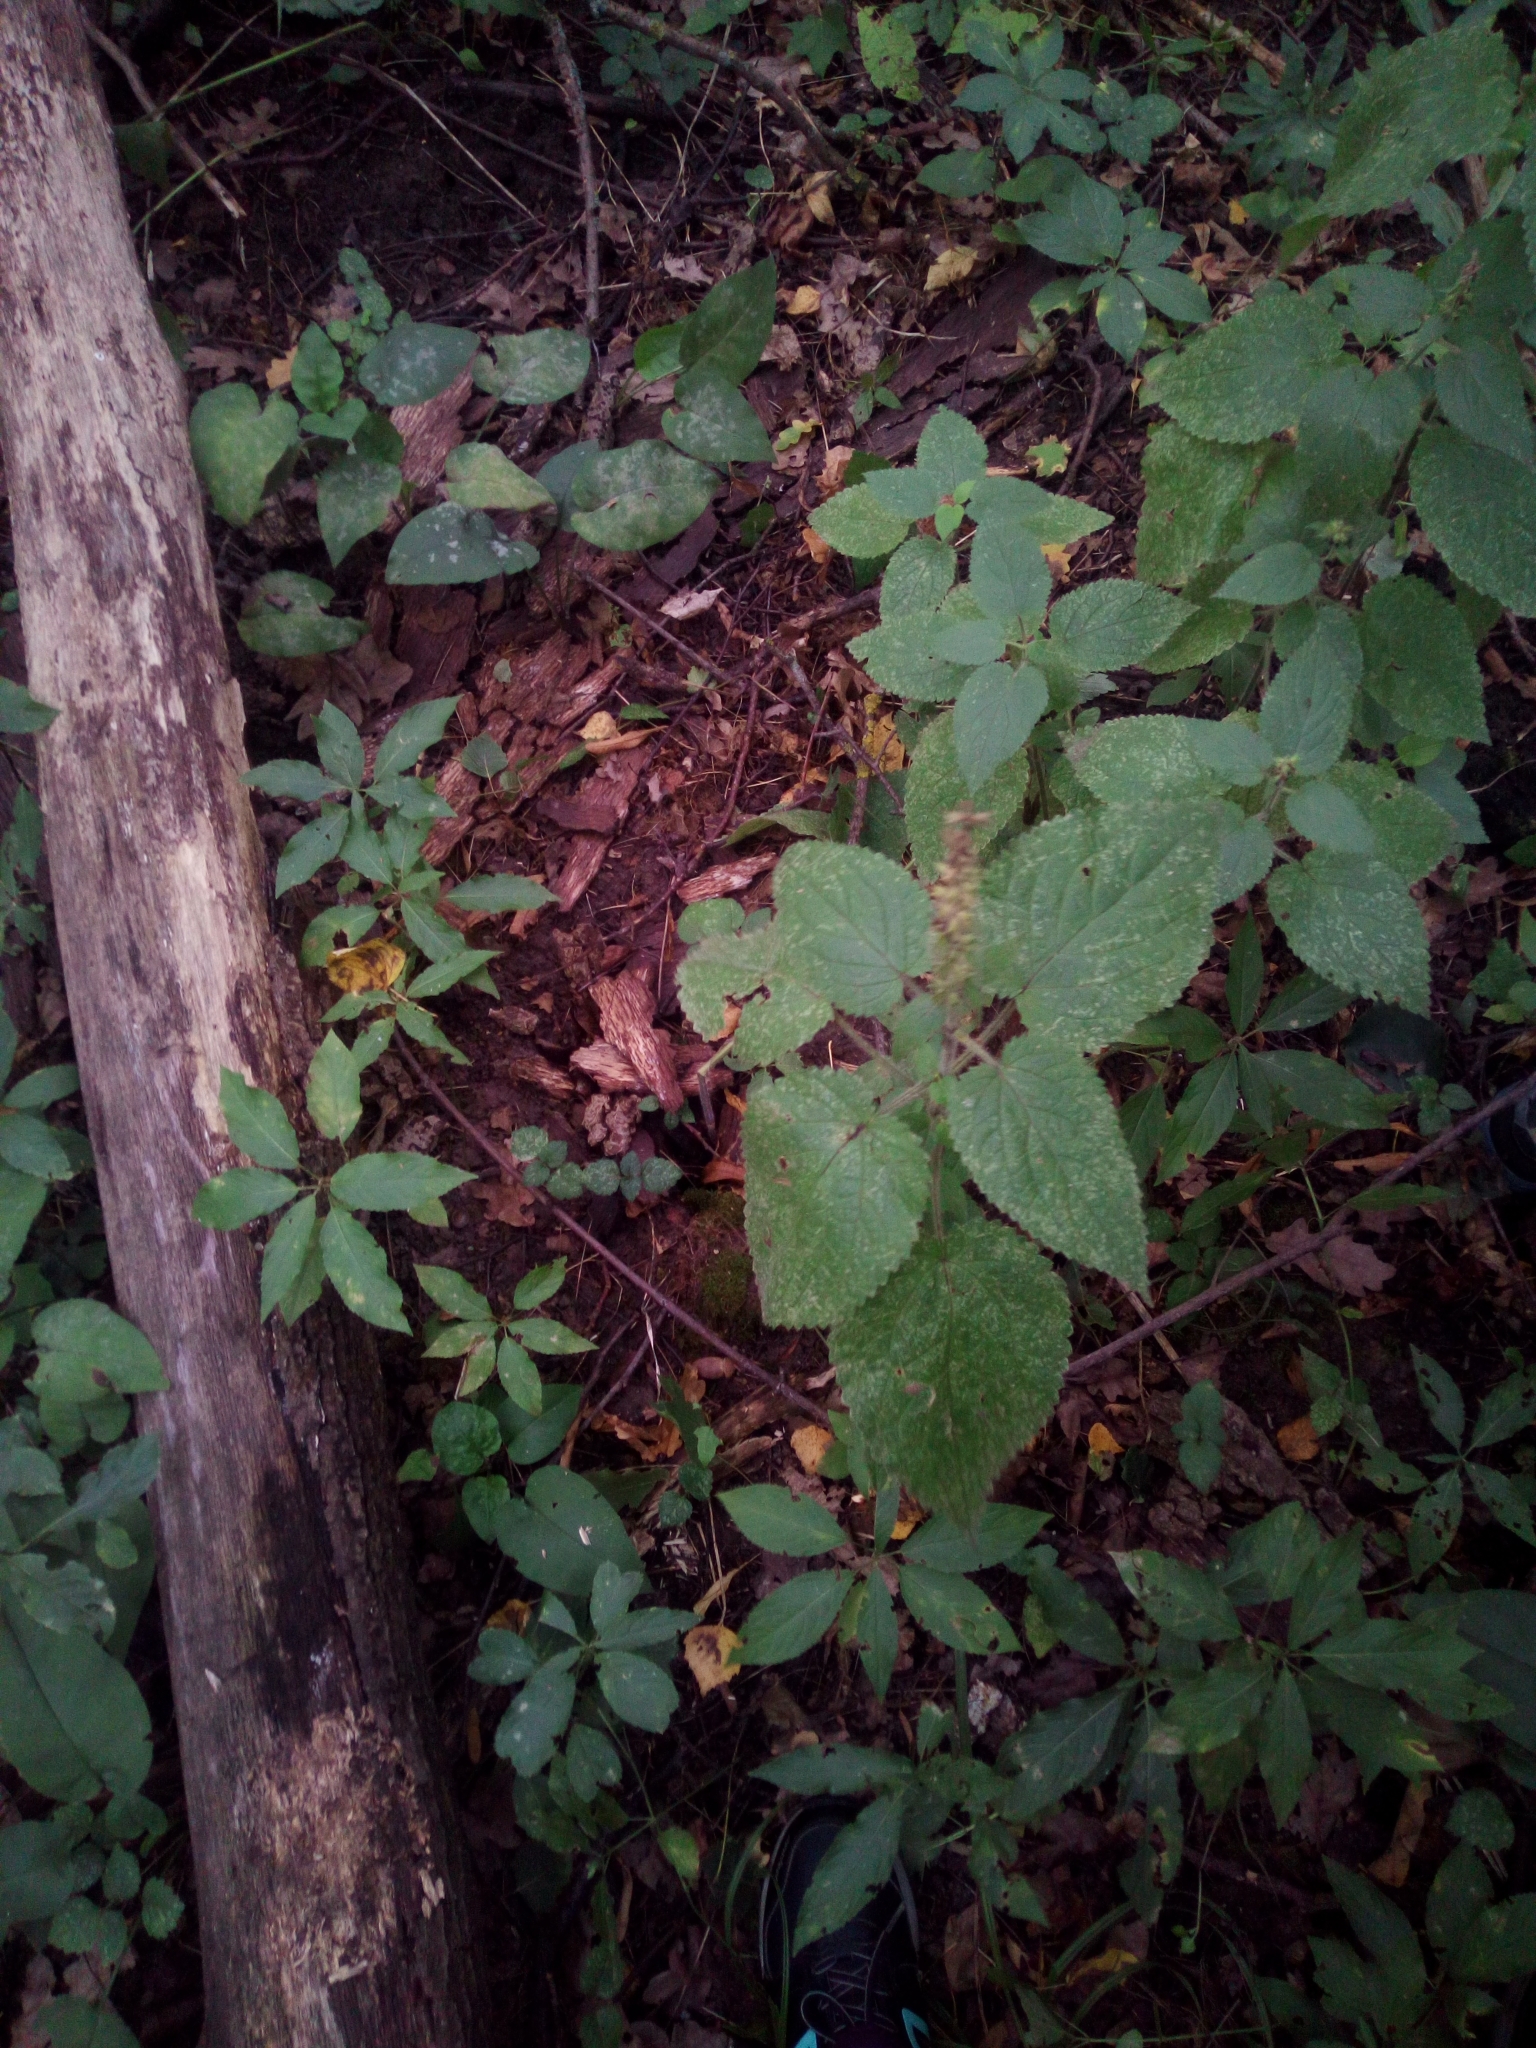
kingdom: Plantae
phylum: Tracheophyta
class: Magnoliopsida
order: Lamiales
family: Lamiaceae
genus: Stachys
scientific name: Stachys sylvatica
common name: Hedge woundwort
